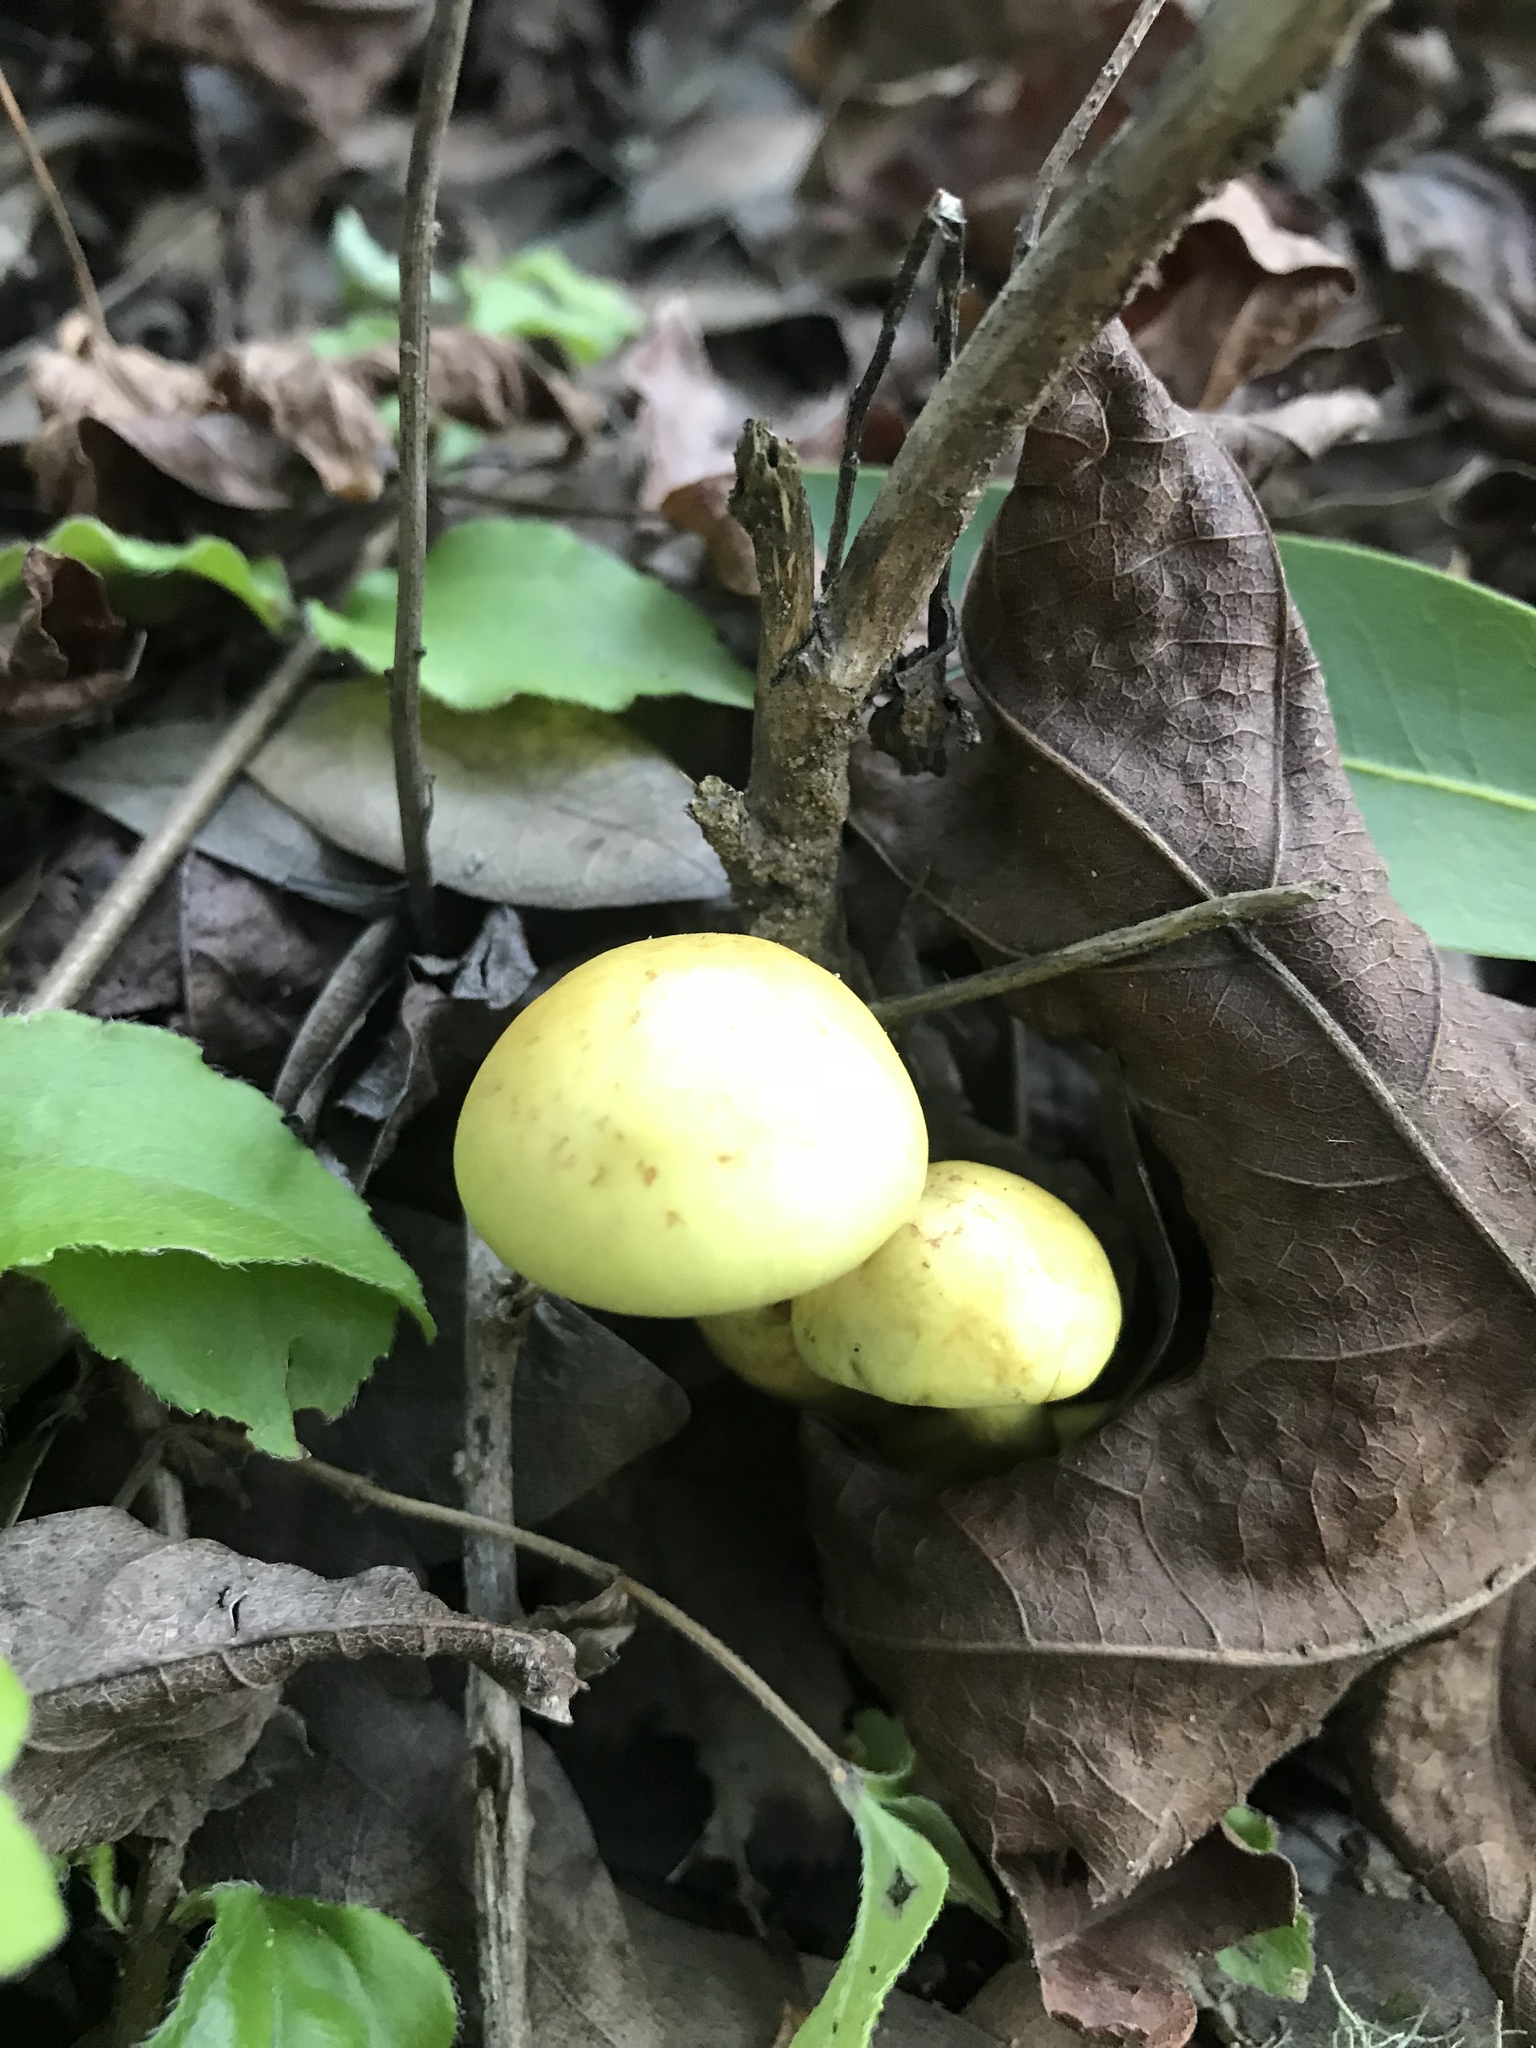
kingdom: Fungi
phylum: Basidiomycota
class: Agaricomycetes
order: Agaricales
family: Strophariaceae
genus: Hypholoma
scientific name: Hypholoma fasciculare
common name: Sulphur tuft
